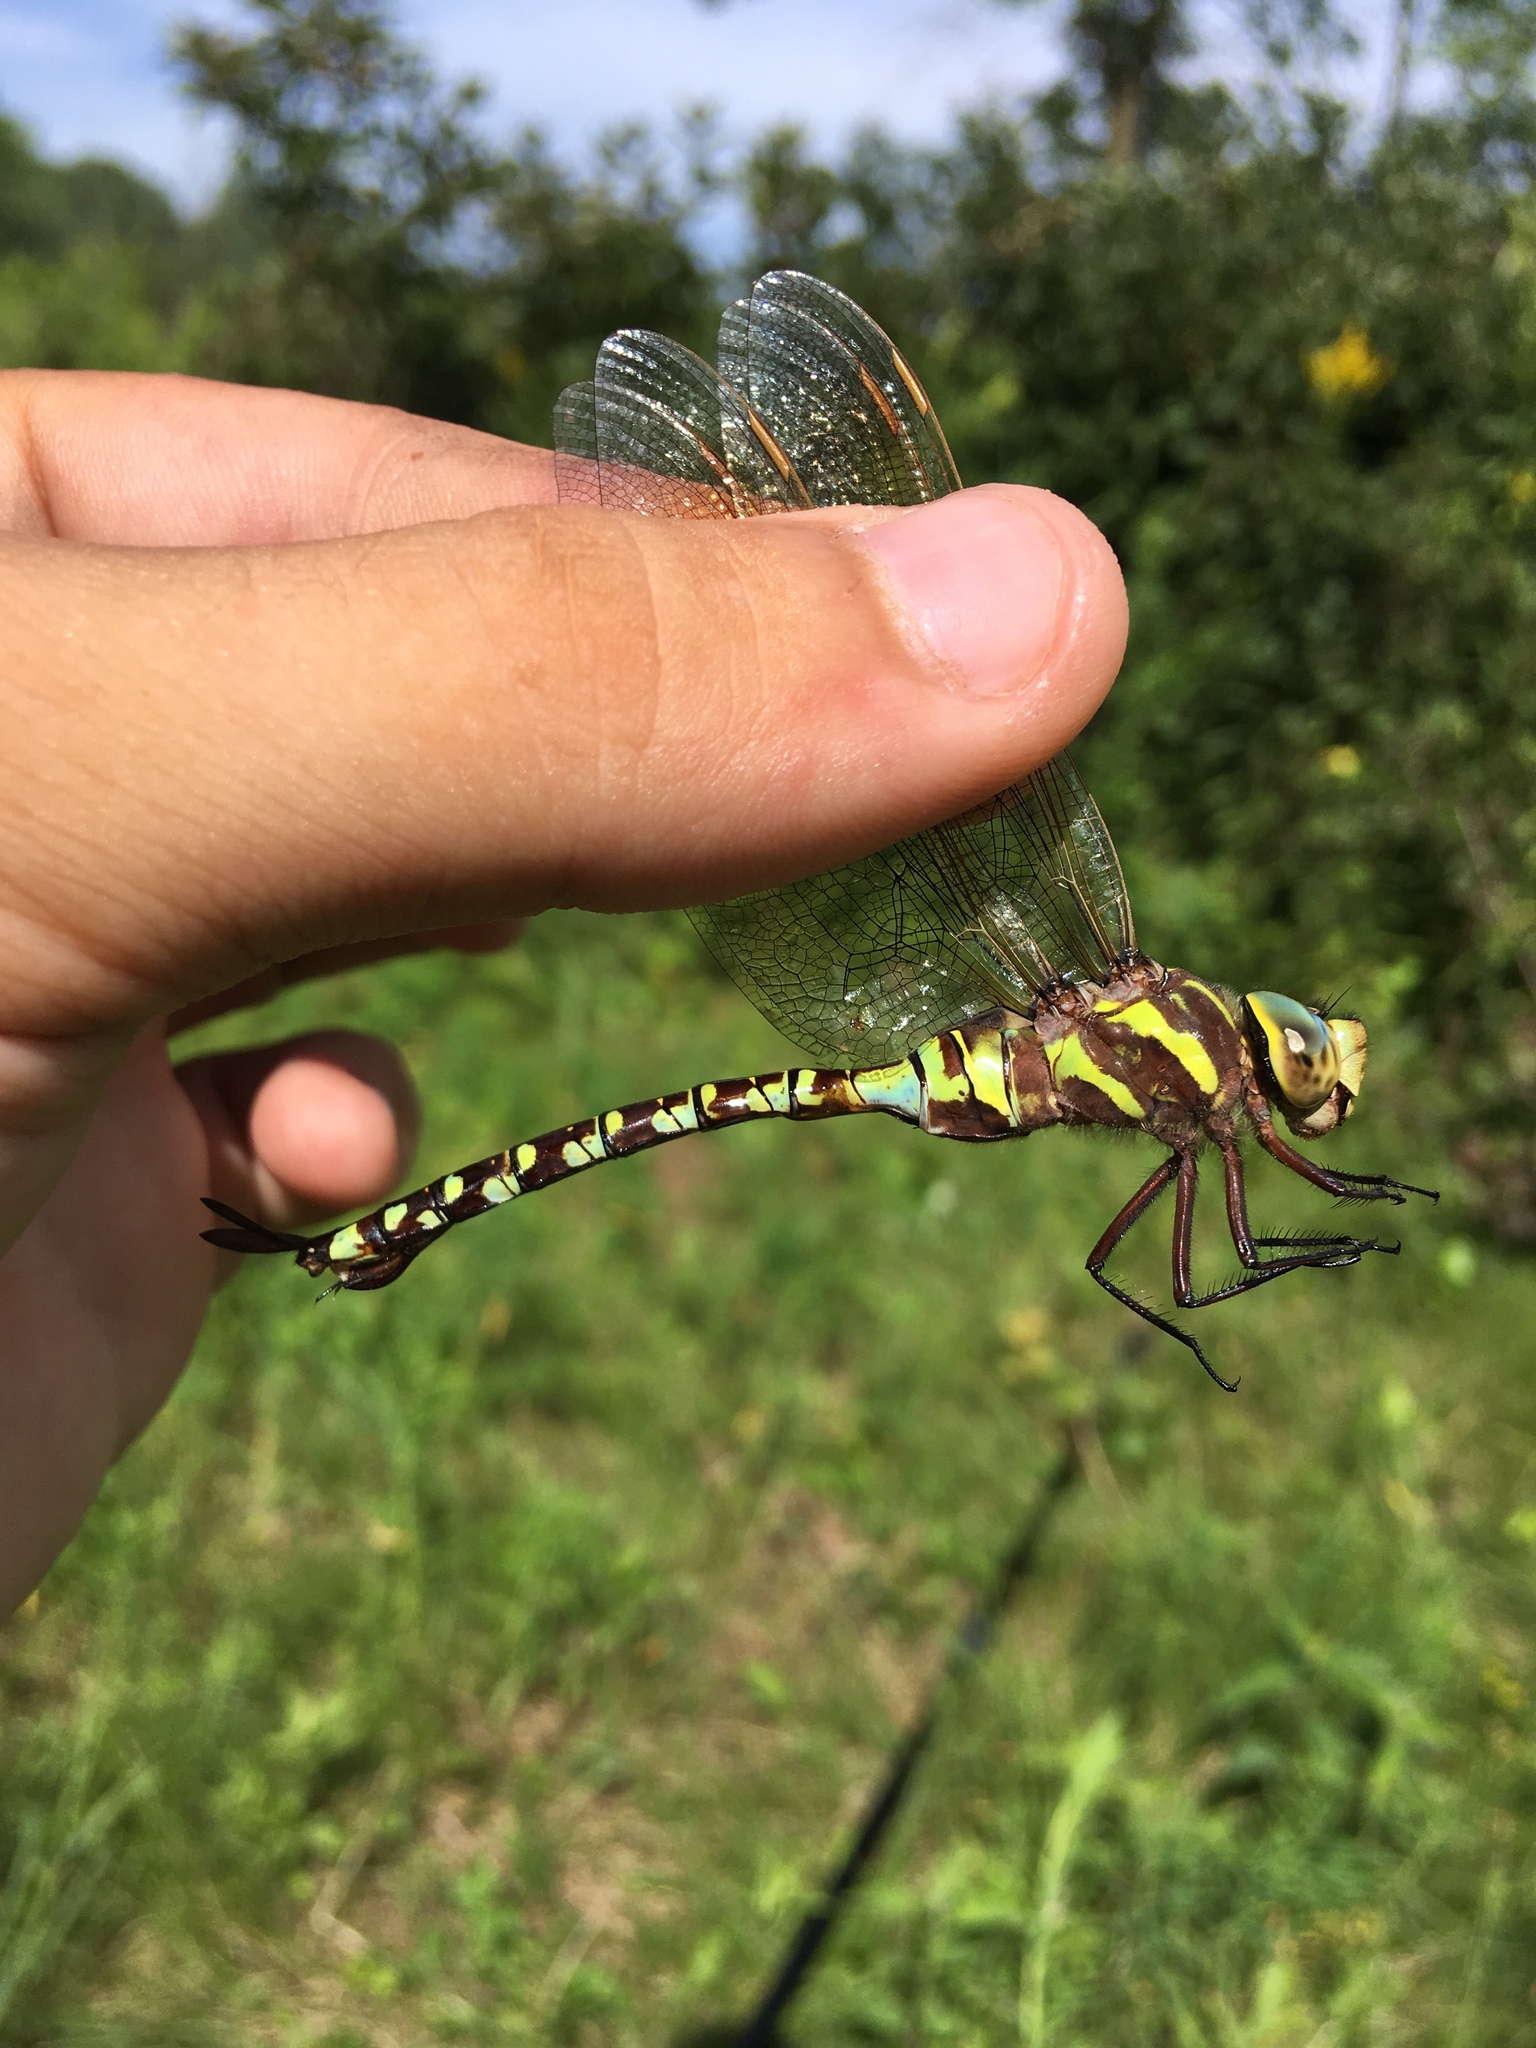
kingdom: Animalia
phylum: Arthropoda
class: Insecta
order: Odonata
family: Aeshnidae
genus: Aeshna
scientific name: Aeshna constricta
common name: Lance-tipped darner
